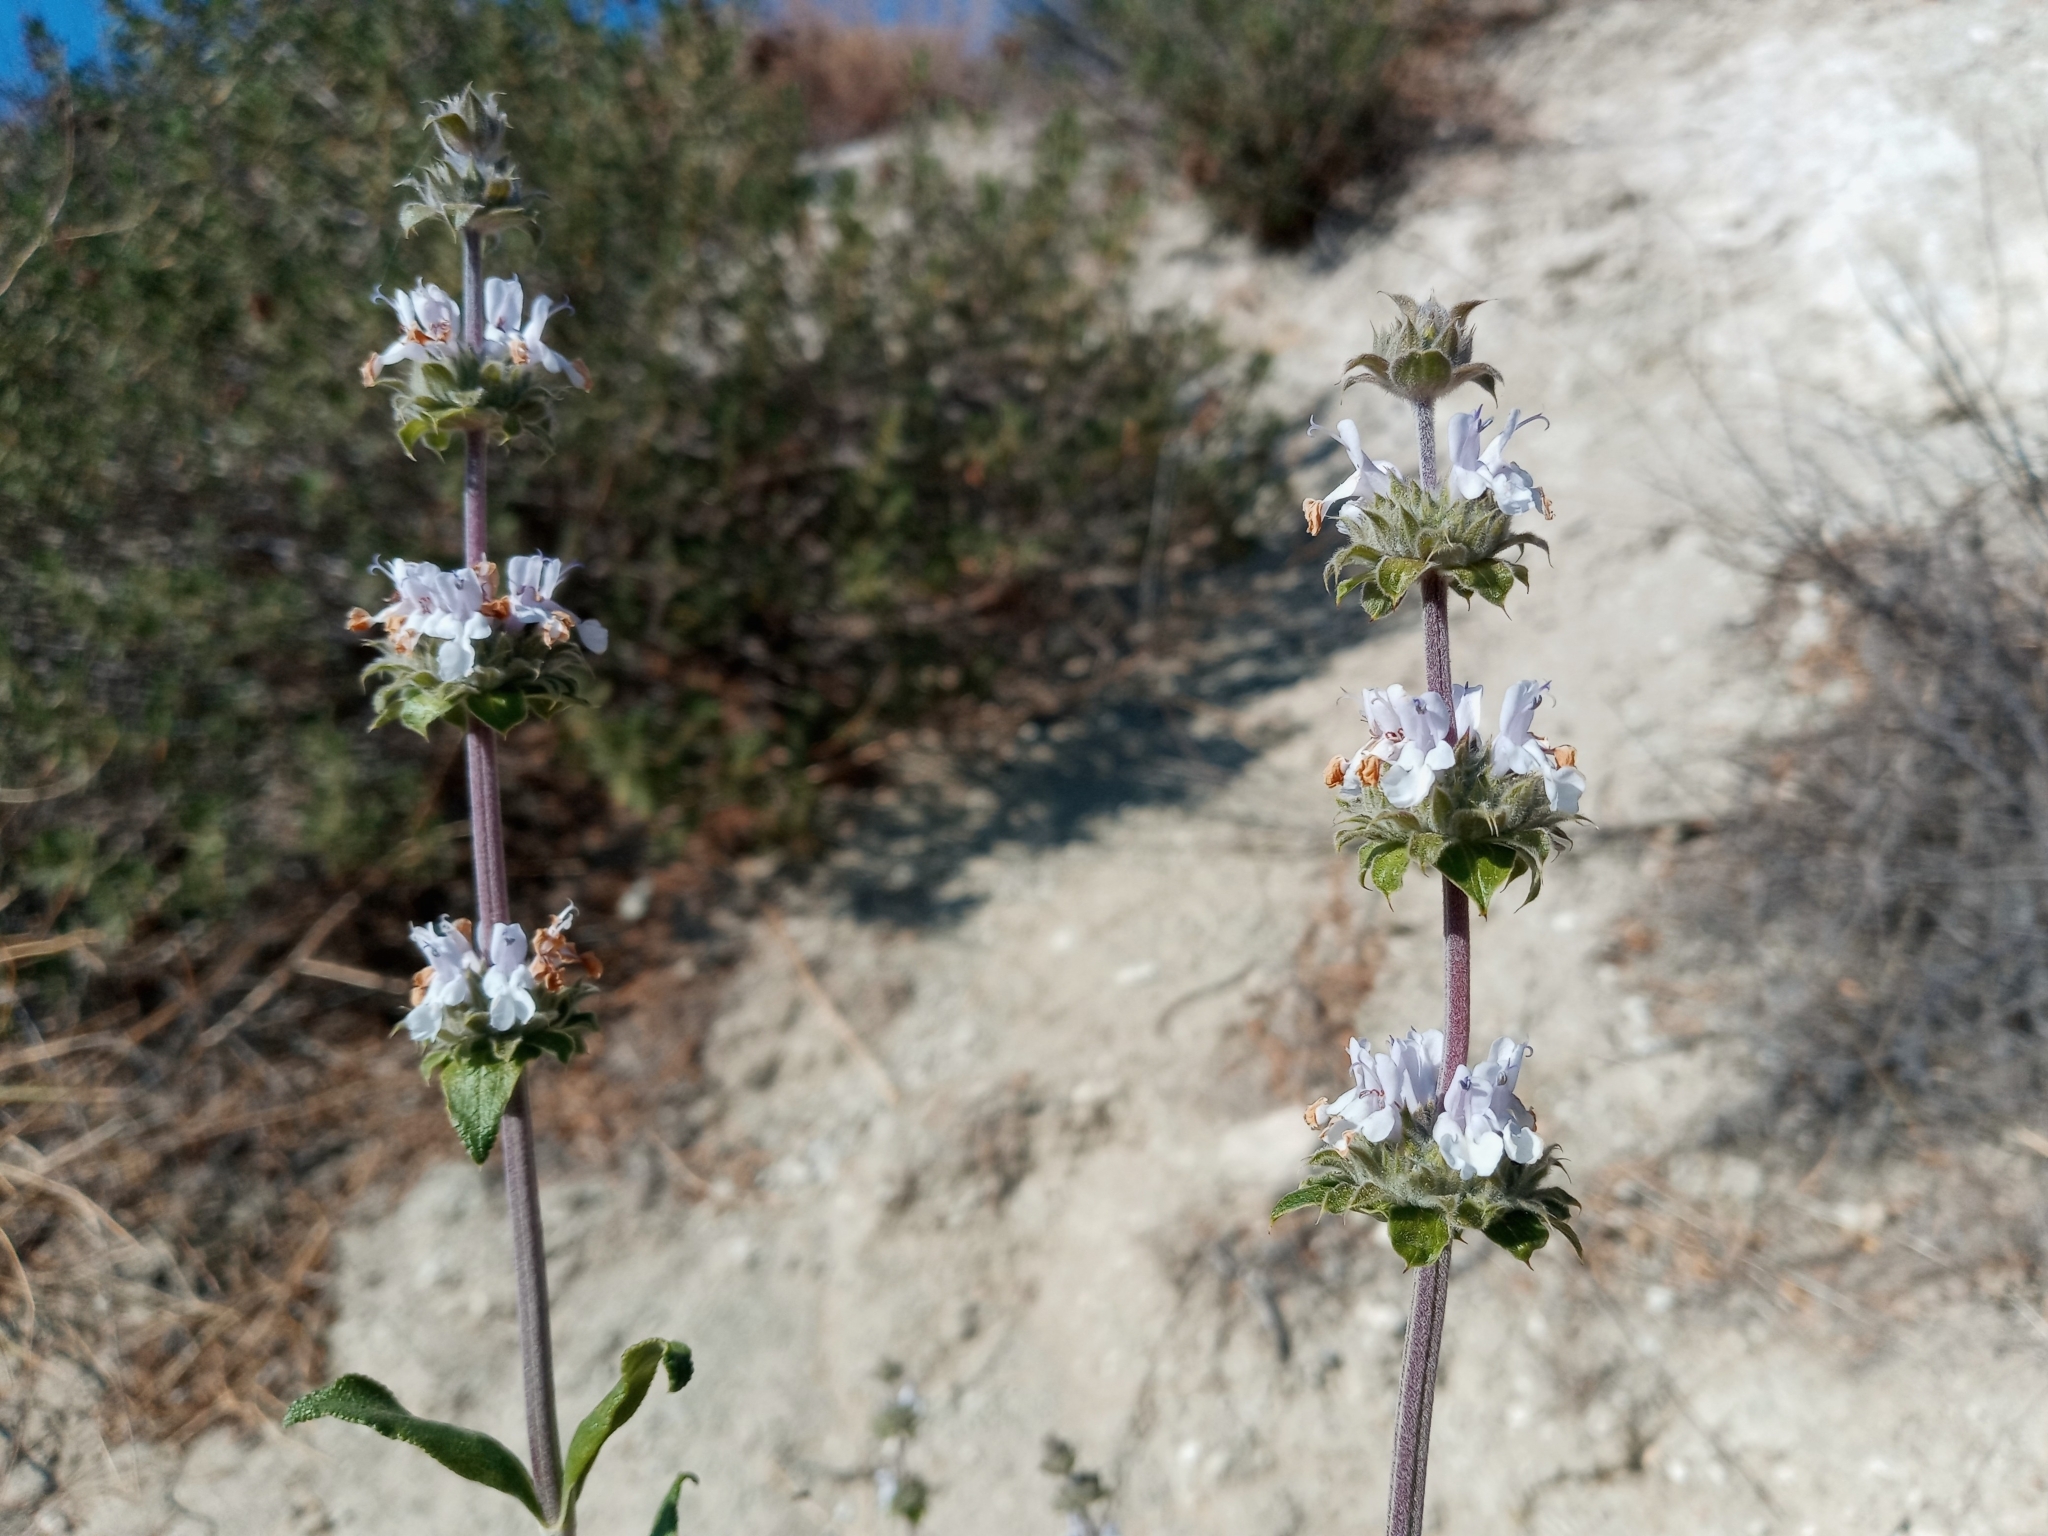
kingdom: Plantae
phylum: Tracheophyta
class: Magnoliopsida
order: Lamiales
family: Lamiaceae
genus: Salvia
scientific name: Salvia mellifera
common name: Black sage
